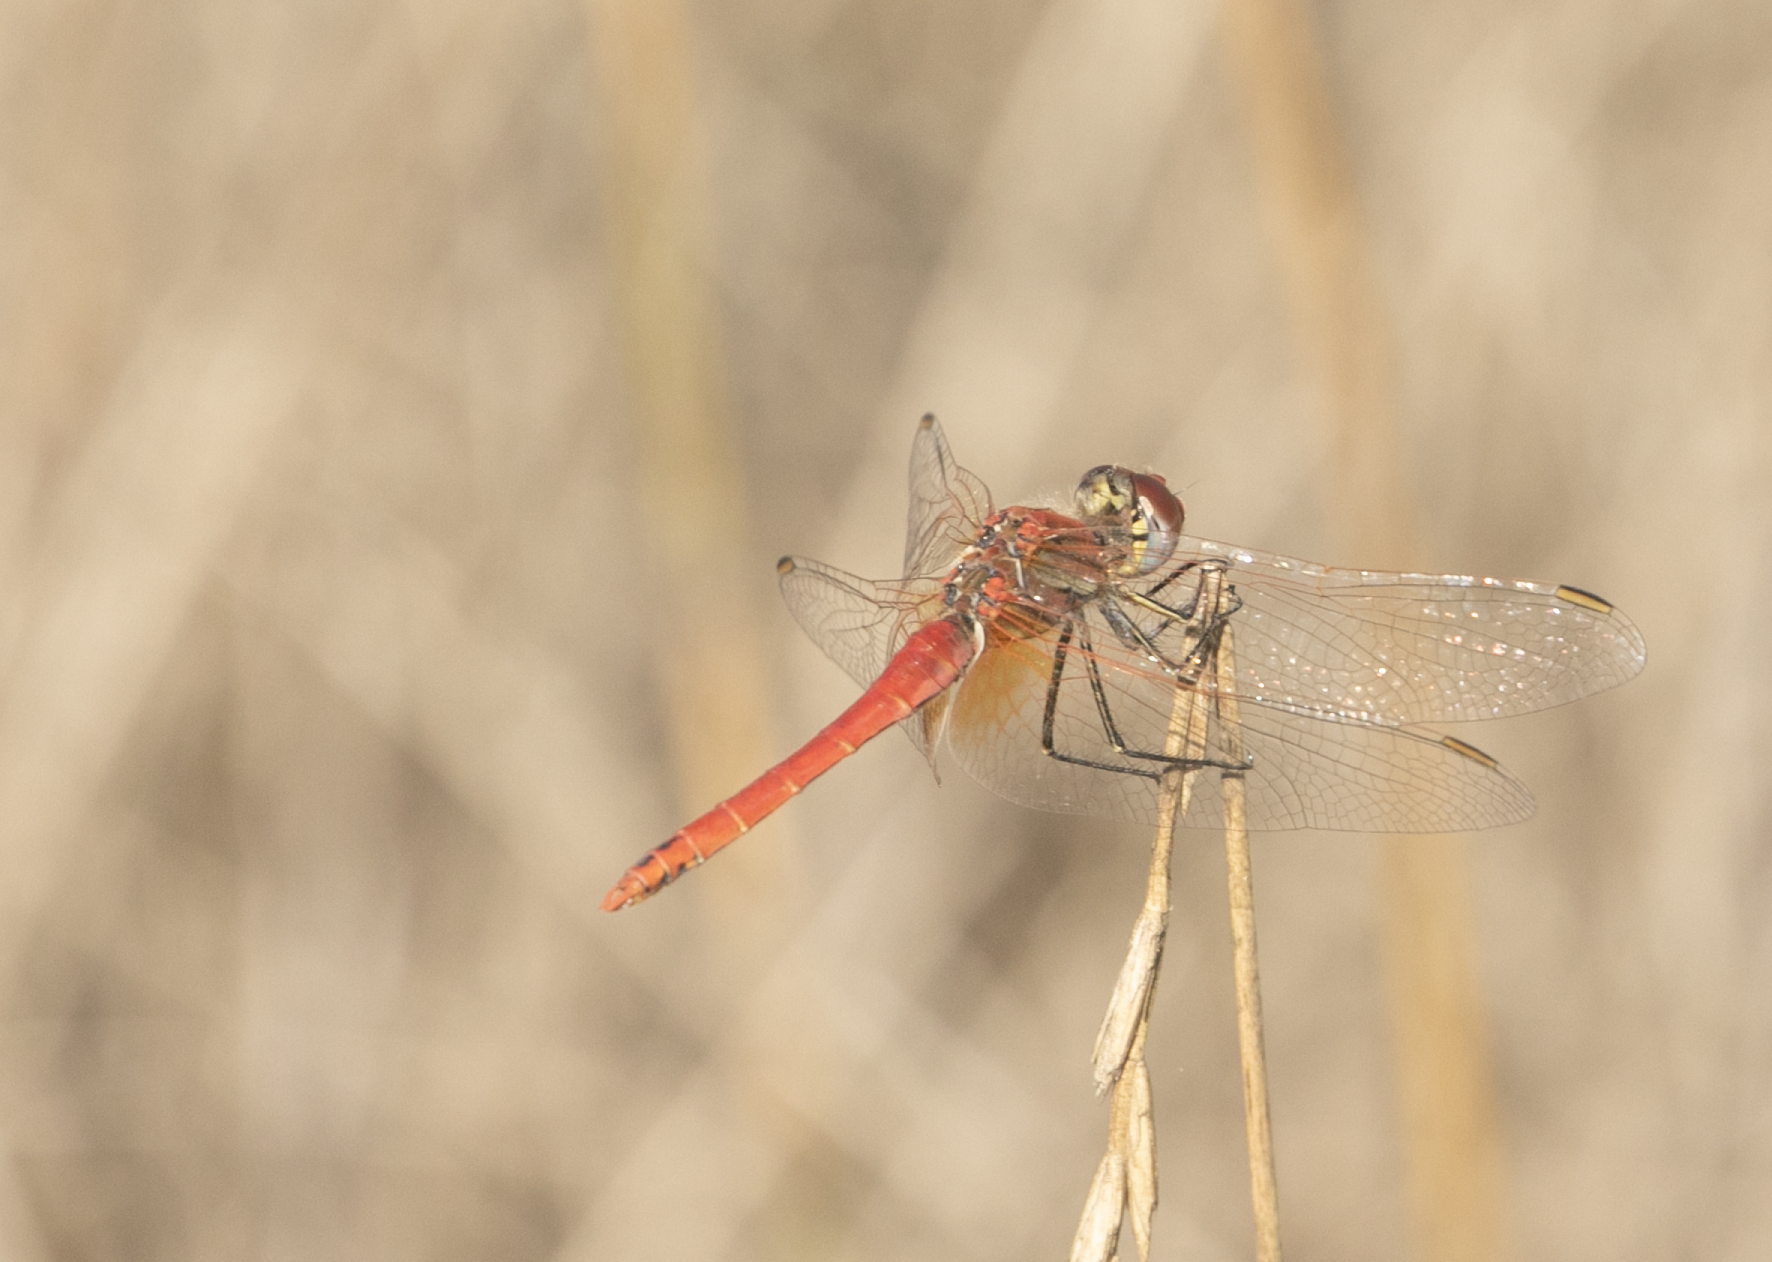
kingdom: Animalia
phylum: Arthropoda
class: Insecta
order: Odonata
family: Libellulidae
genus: Sympetrum
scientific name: Sympetrum fonscolombii
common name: Red-veined darter
